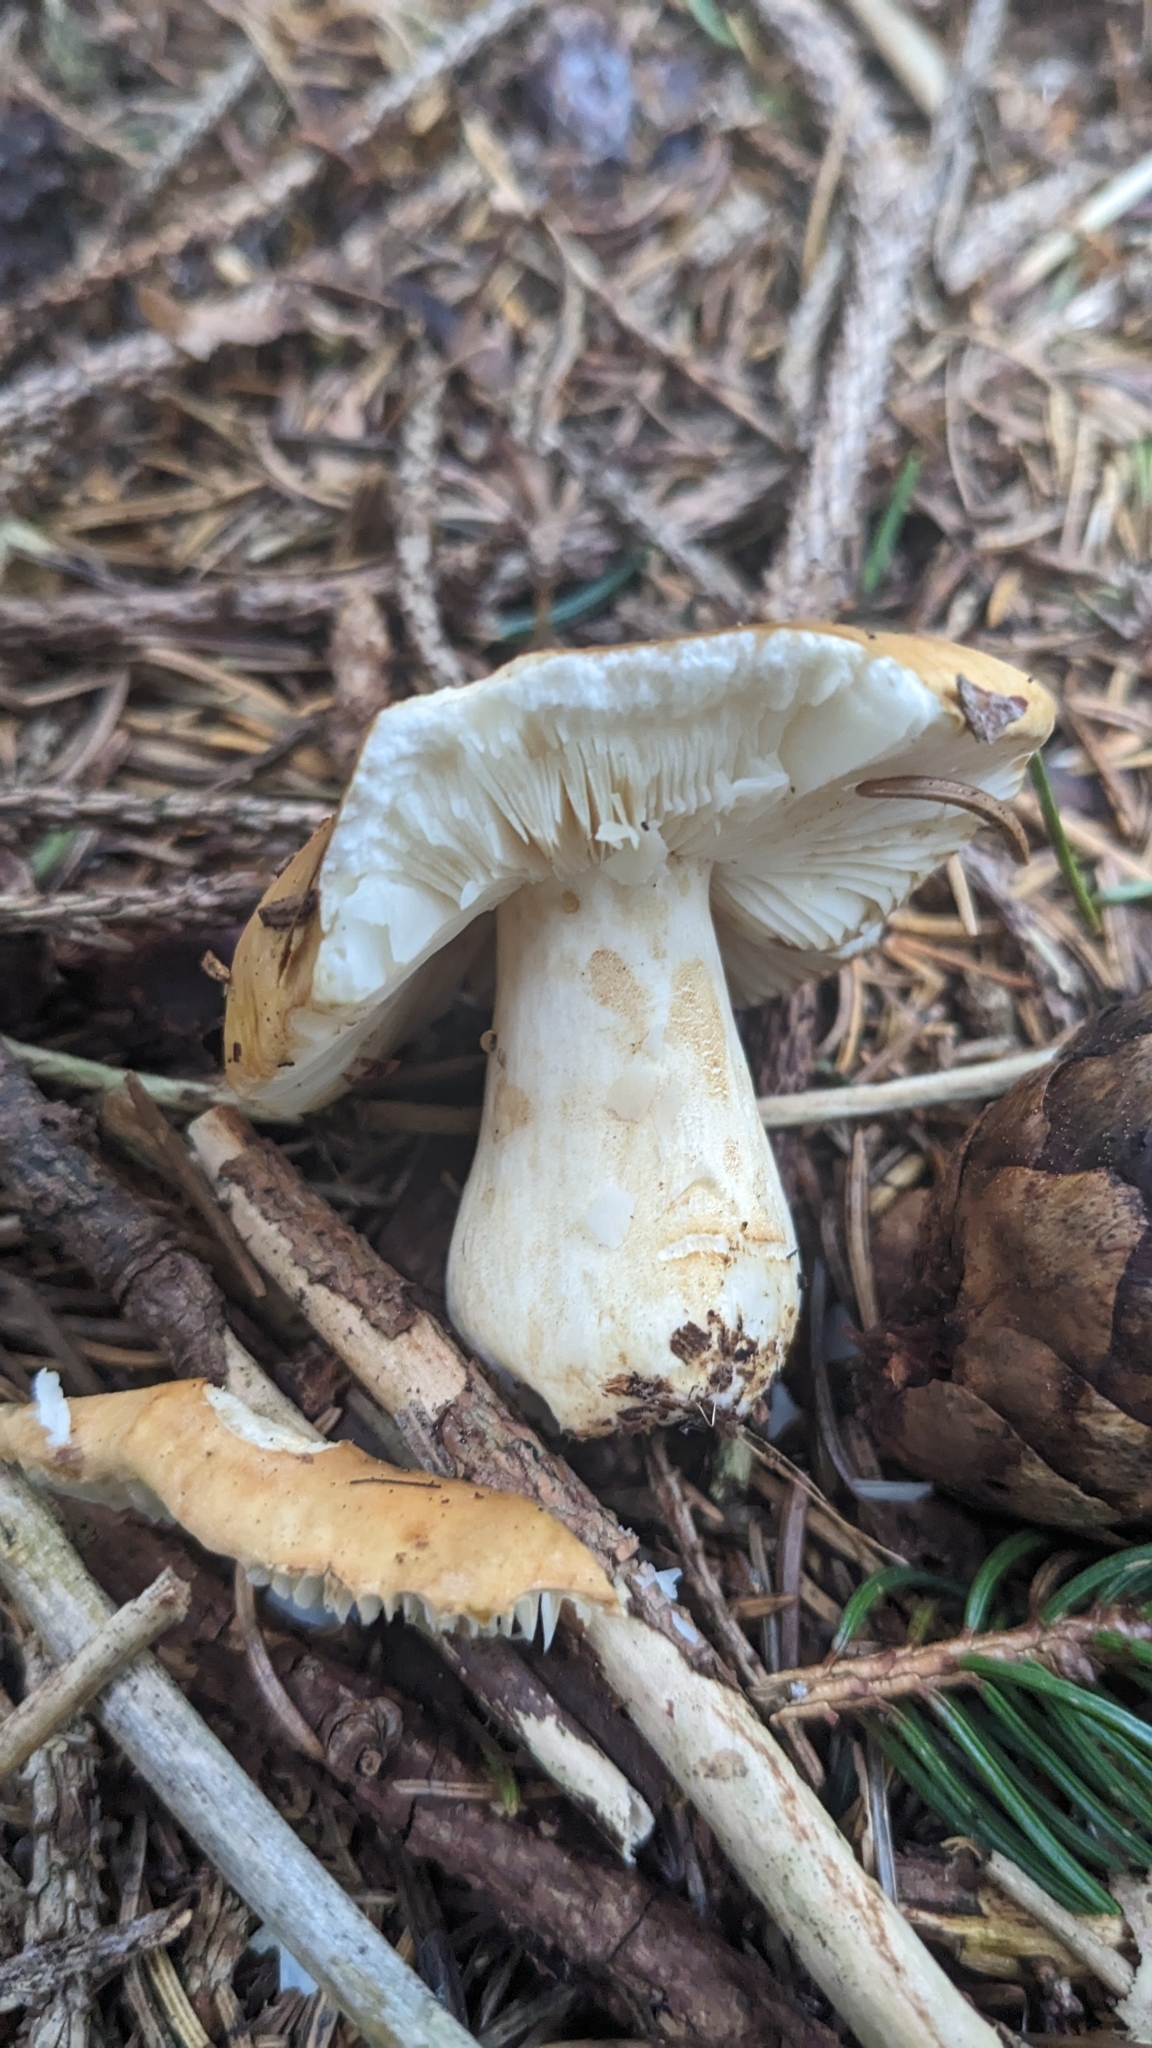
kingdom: Fungi
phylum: Basidiomycota
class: Agaricomycetes
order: Russulales
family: Russulaceae
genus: Russula
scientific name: Russula ochroleuca
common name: Common yellow russula
